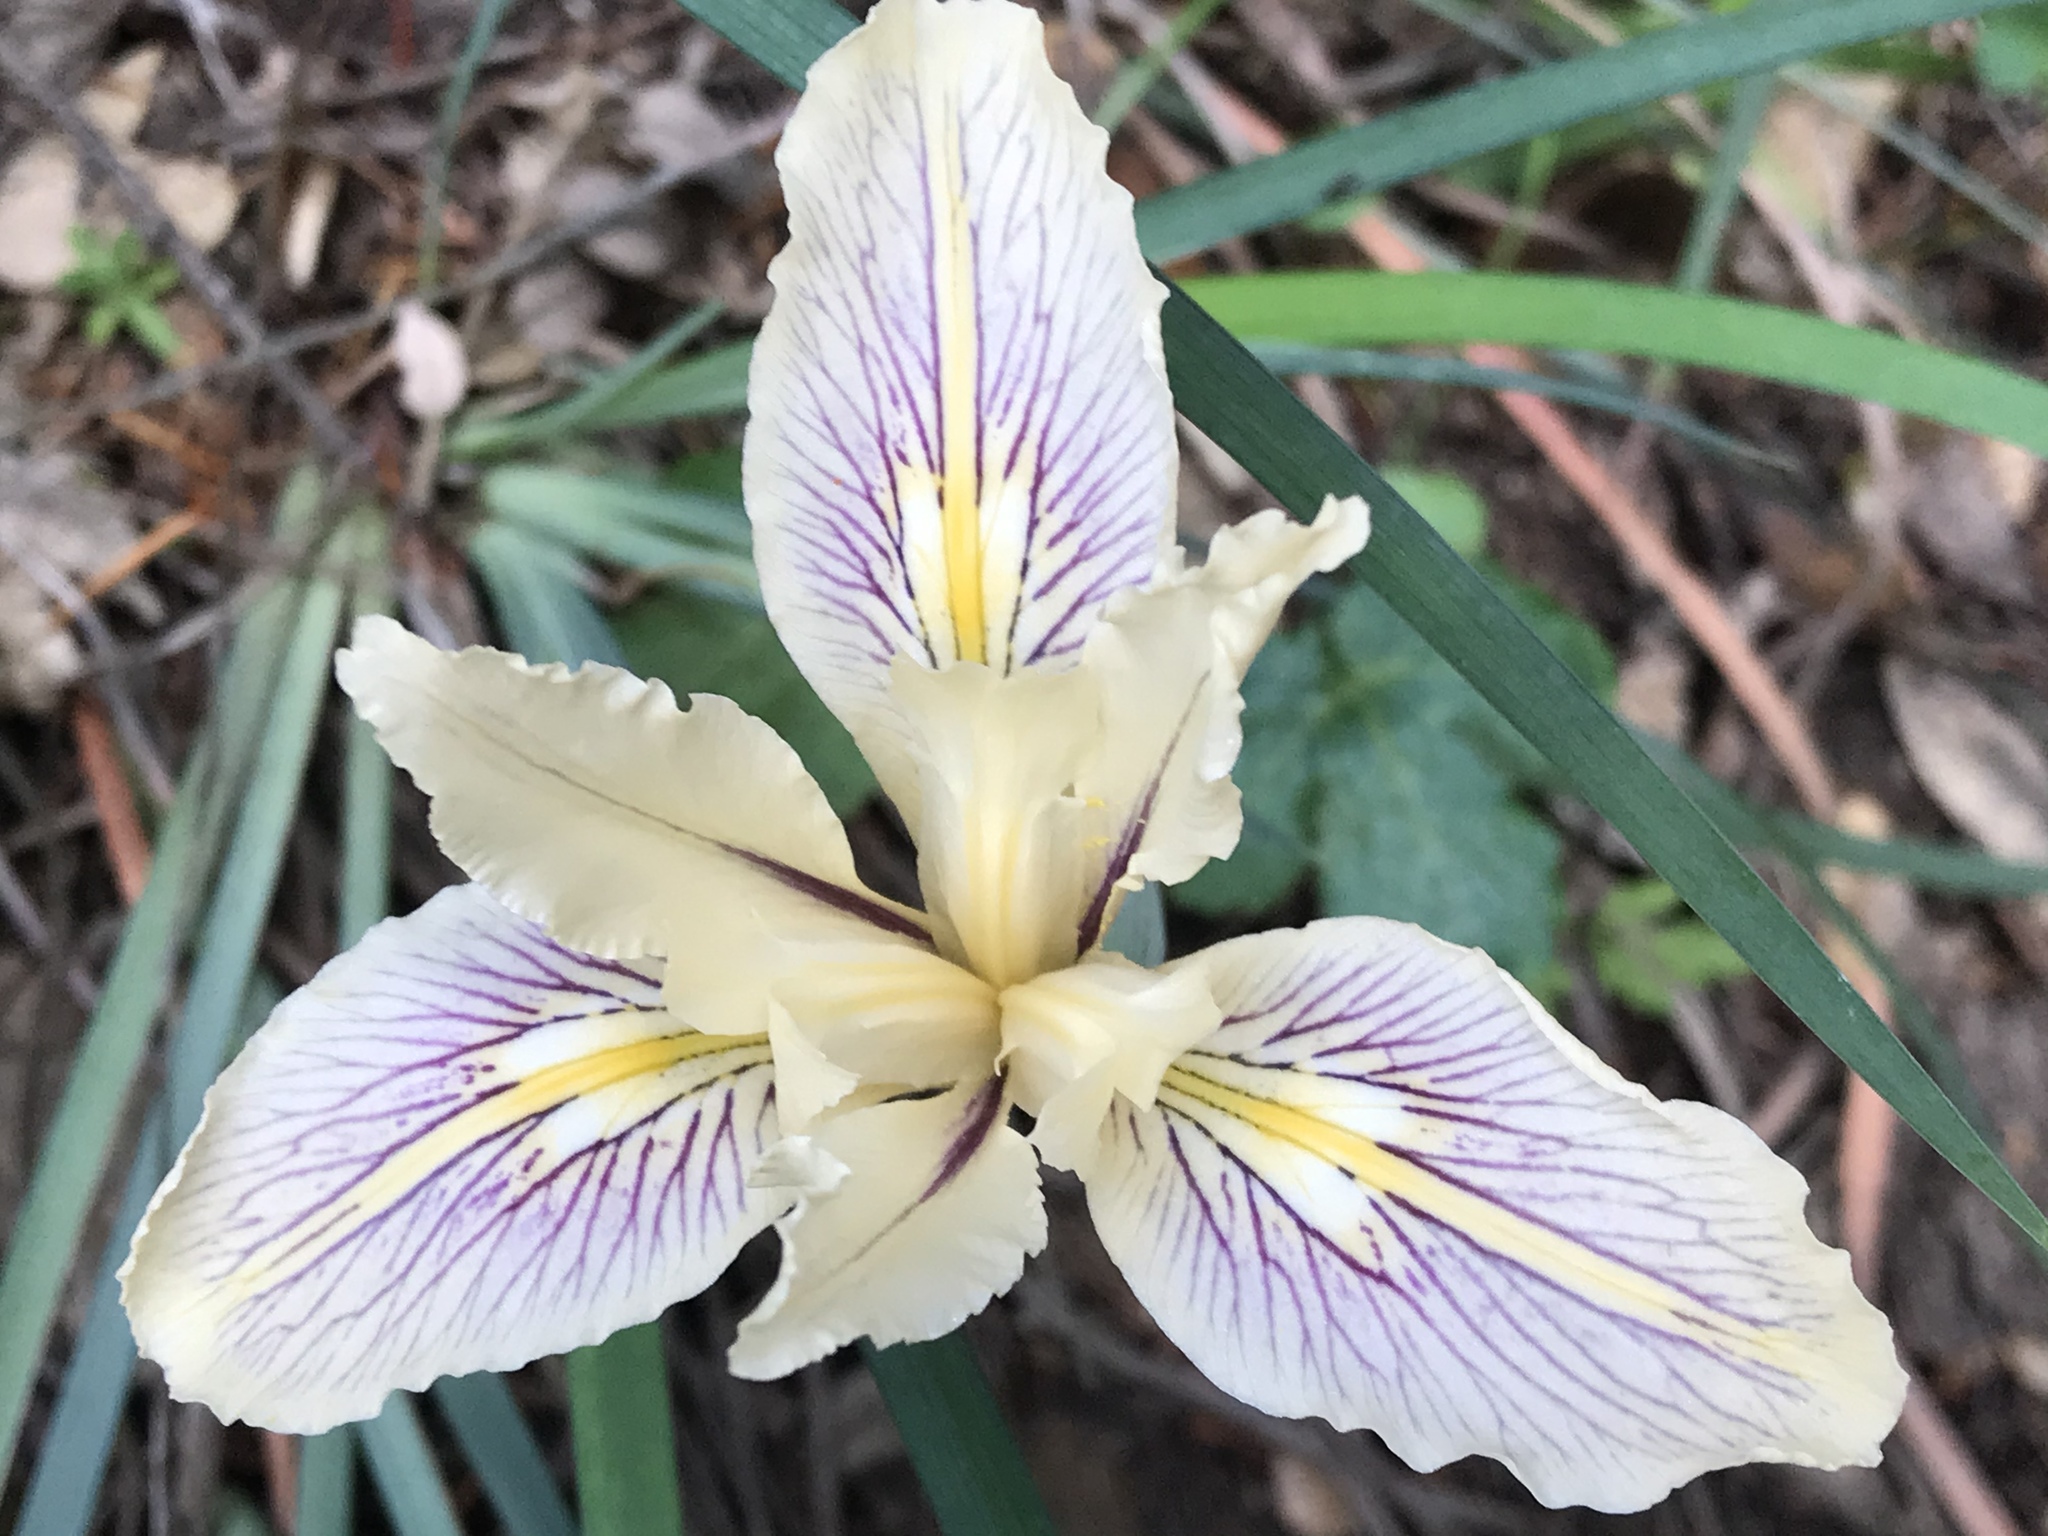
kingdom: Plantae
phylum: Tracheophyta
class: Liliopsida
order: Asparagales
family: Iridaceae
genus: Iris
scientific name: Iris fernaldii
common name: Fernald's iris
